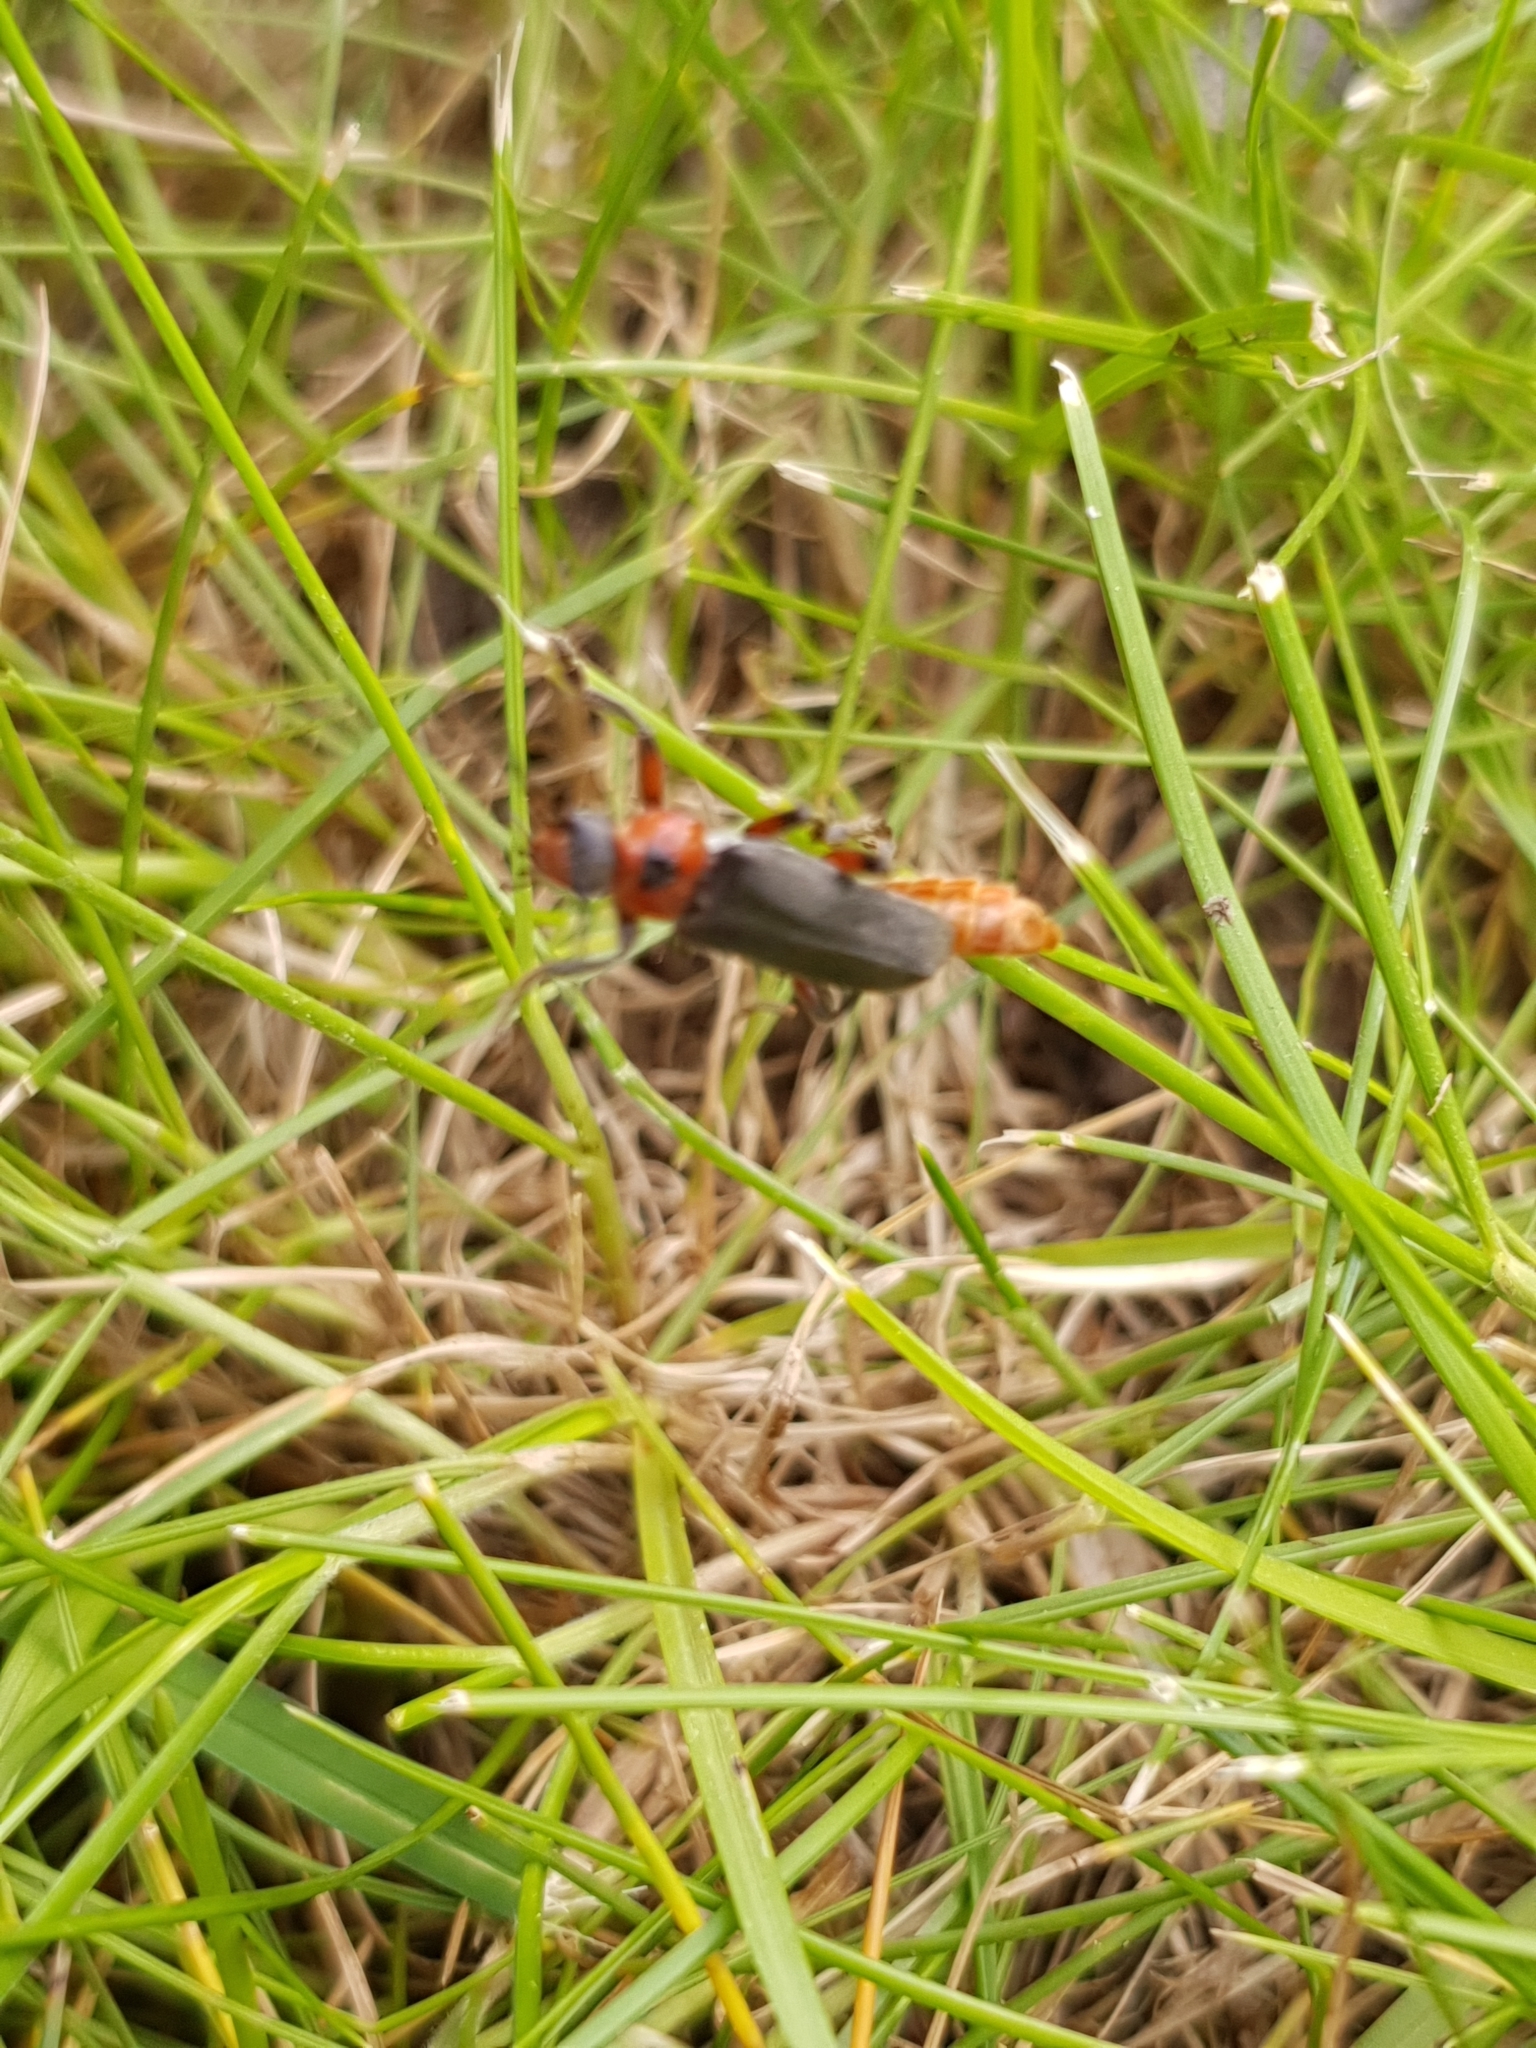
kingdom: Animalia
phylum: Arthropoda
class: Insecta
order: Coleoptera
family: Cantharidae
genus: Cantharis
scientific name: Cantharis rustica
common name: Soldier beetle
